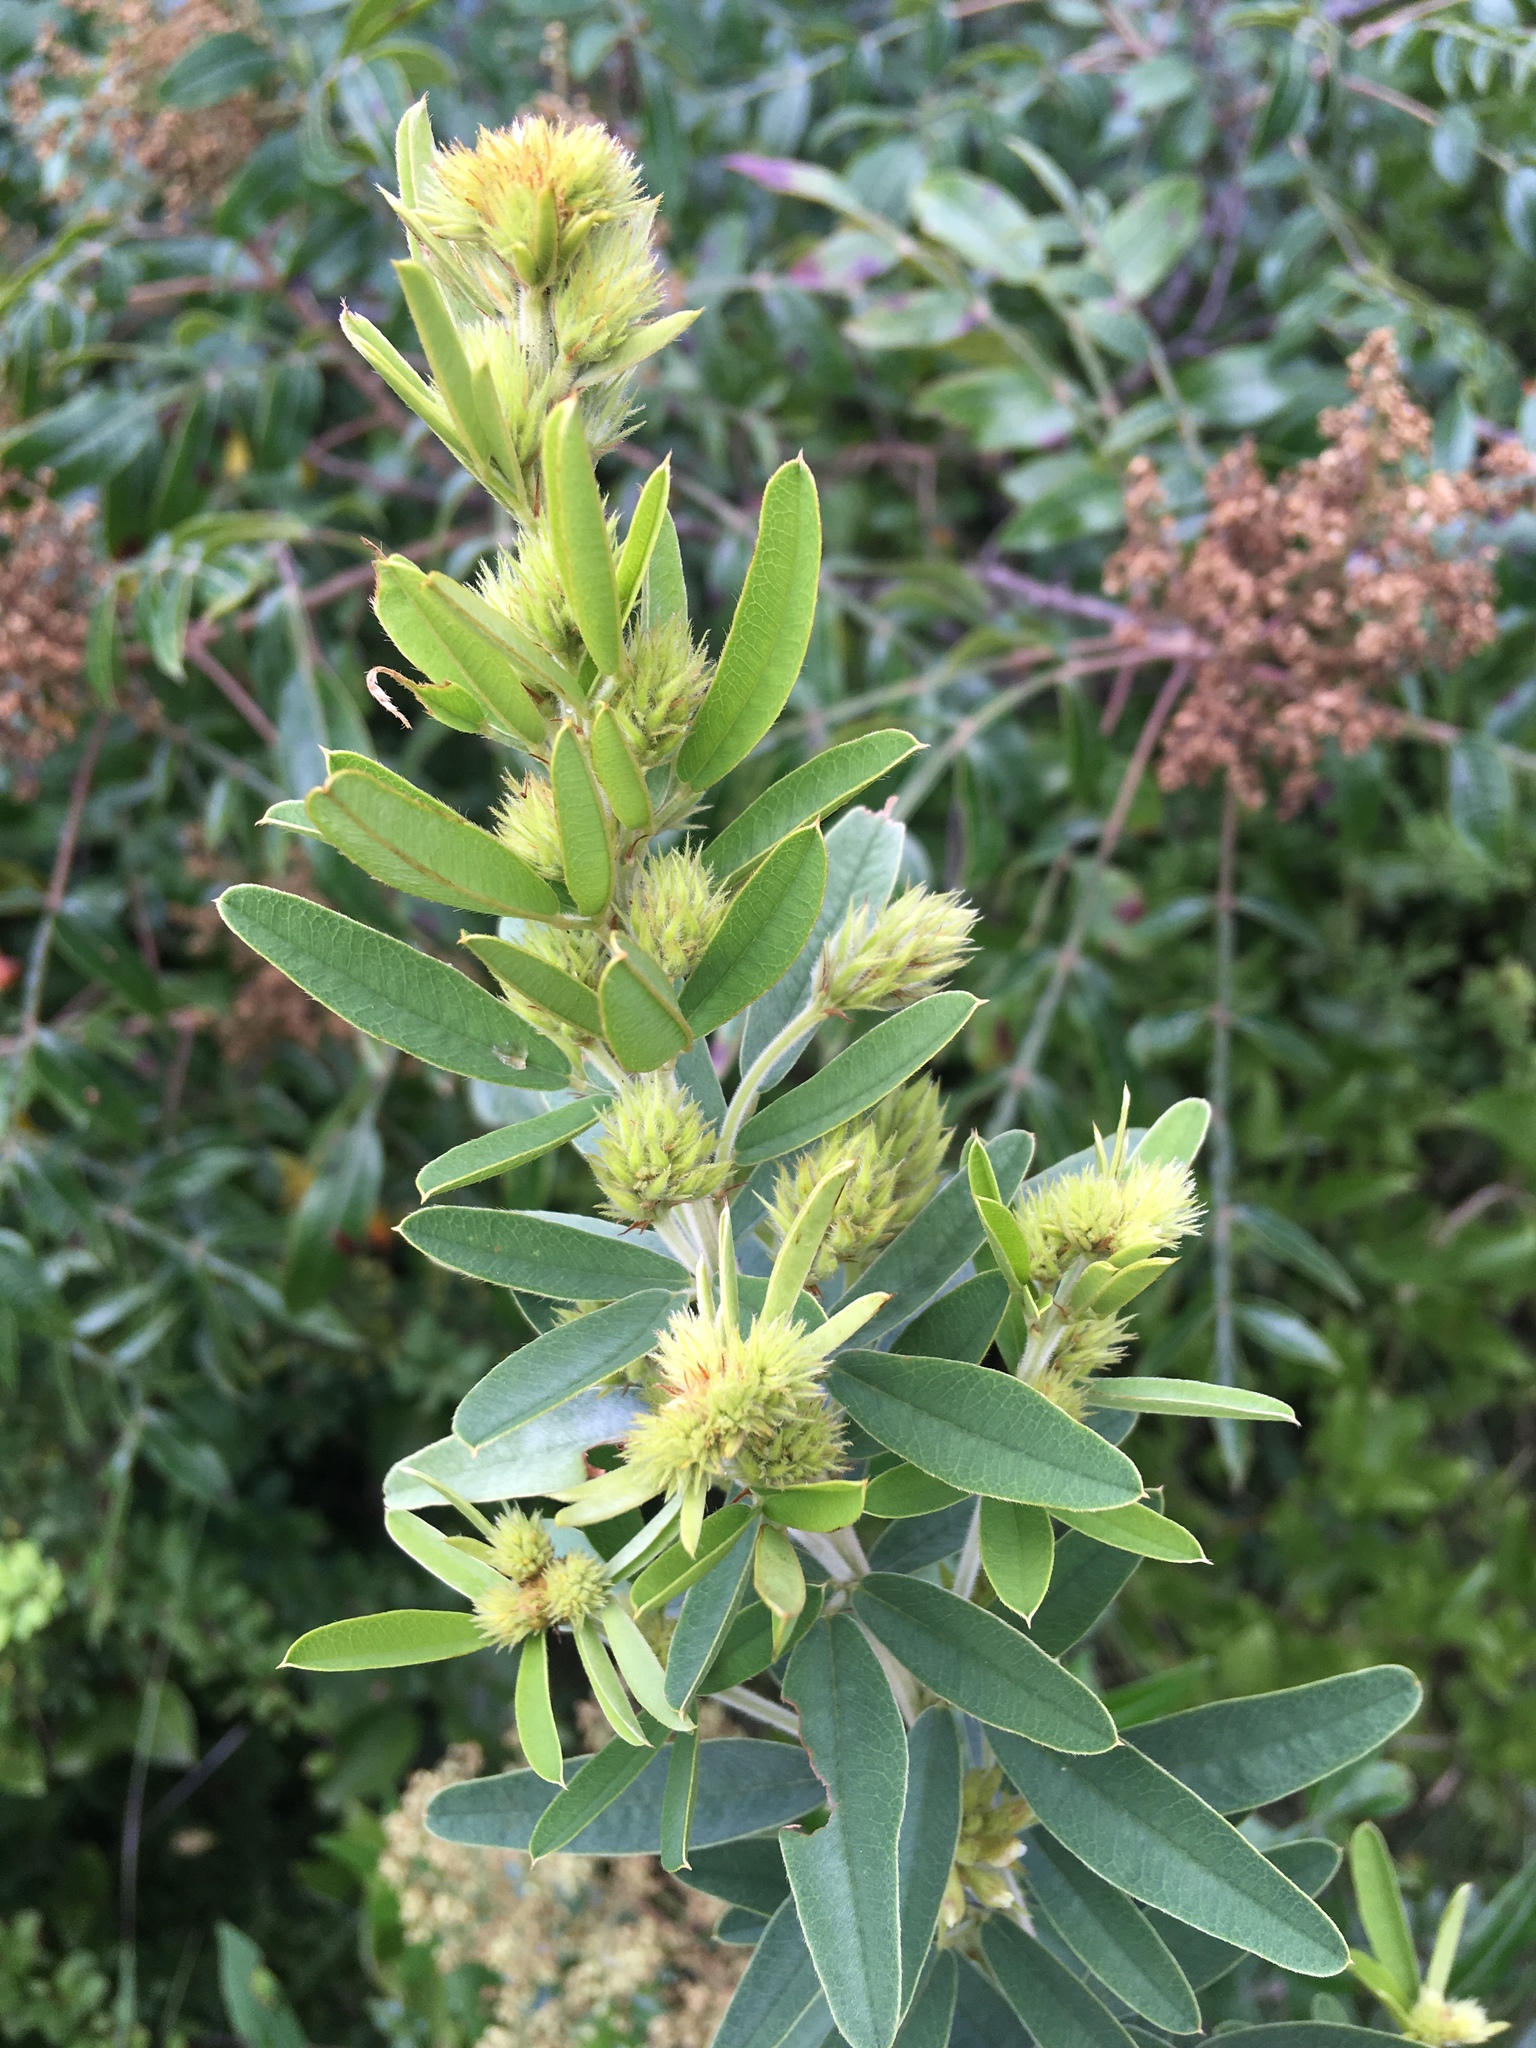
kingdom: Plantae
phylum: Tracheophyta
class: Magnoliopsida
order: Fabales
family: Fabaceae
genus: Lespedeza
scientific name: Lespedeza capitata
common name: Dusty clover
